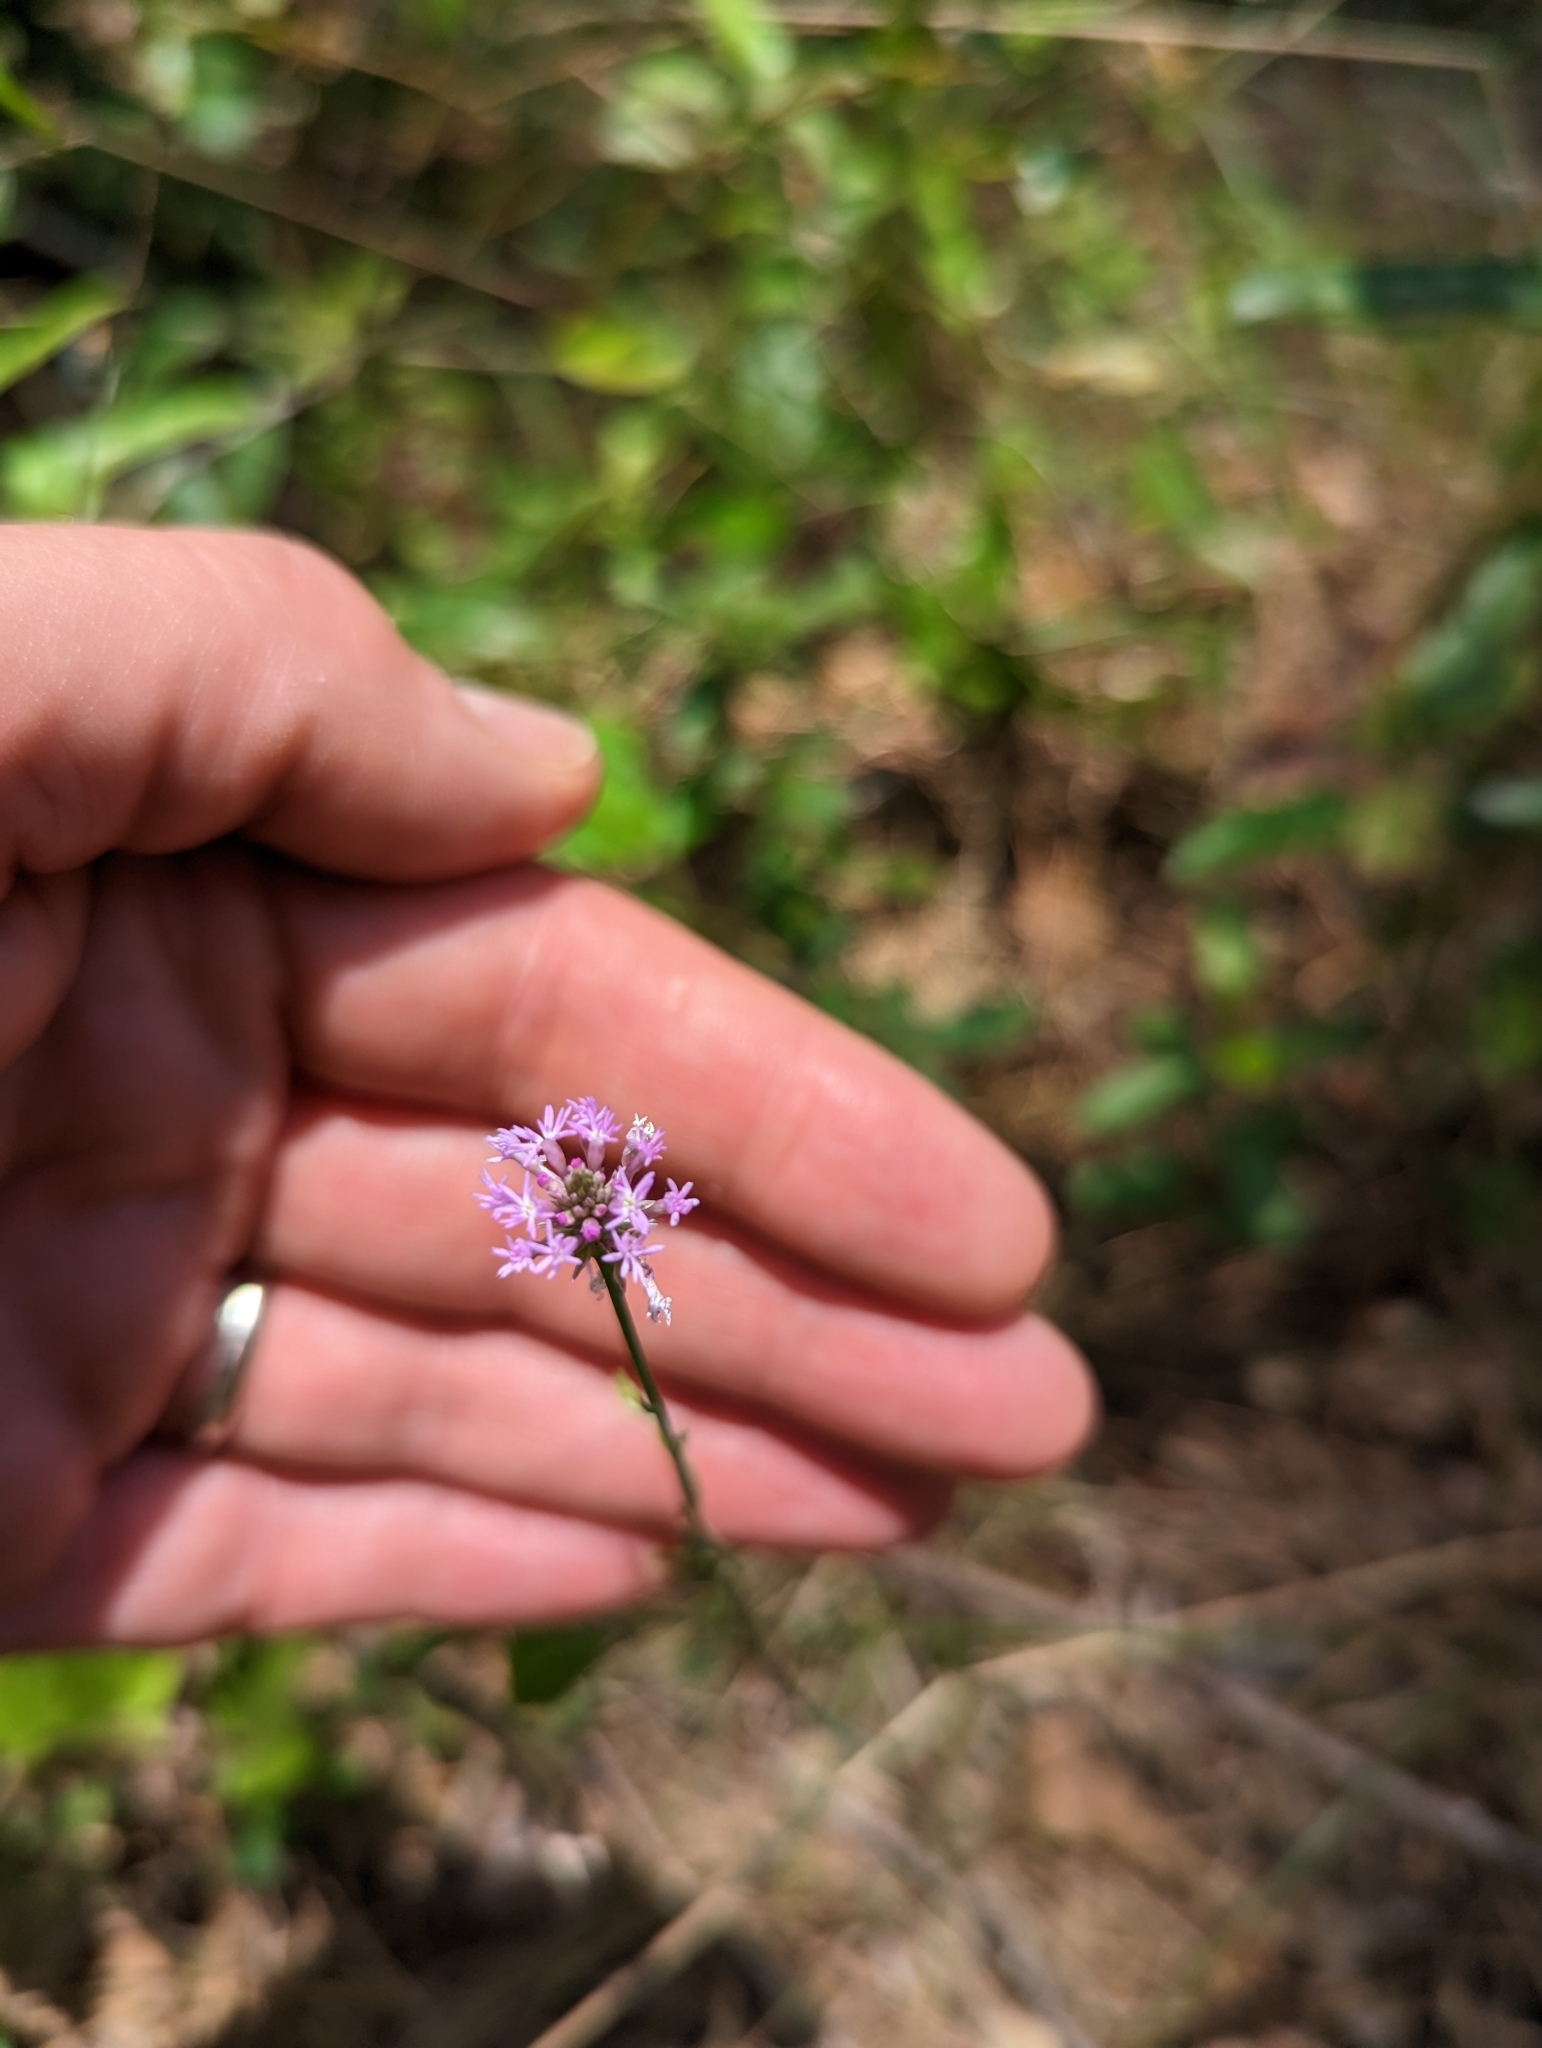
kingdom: Plantae
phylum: Tracheophyta
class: Magnoliopsida
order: Fabales
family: Polygalaceae
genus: Polygala
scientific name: Polygala incarnata
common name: Pink milkwort
